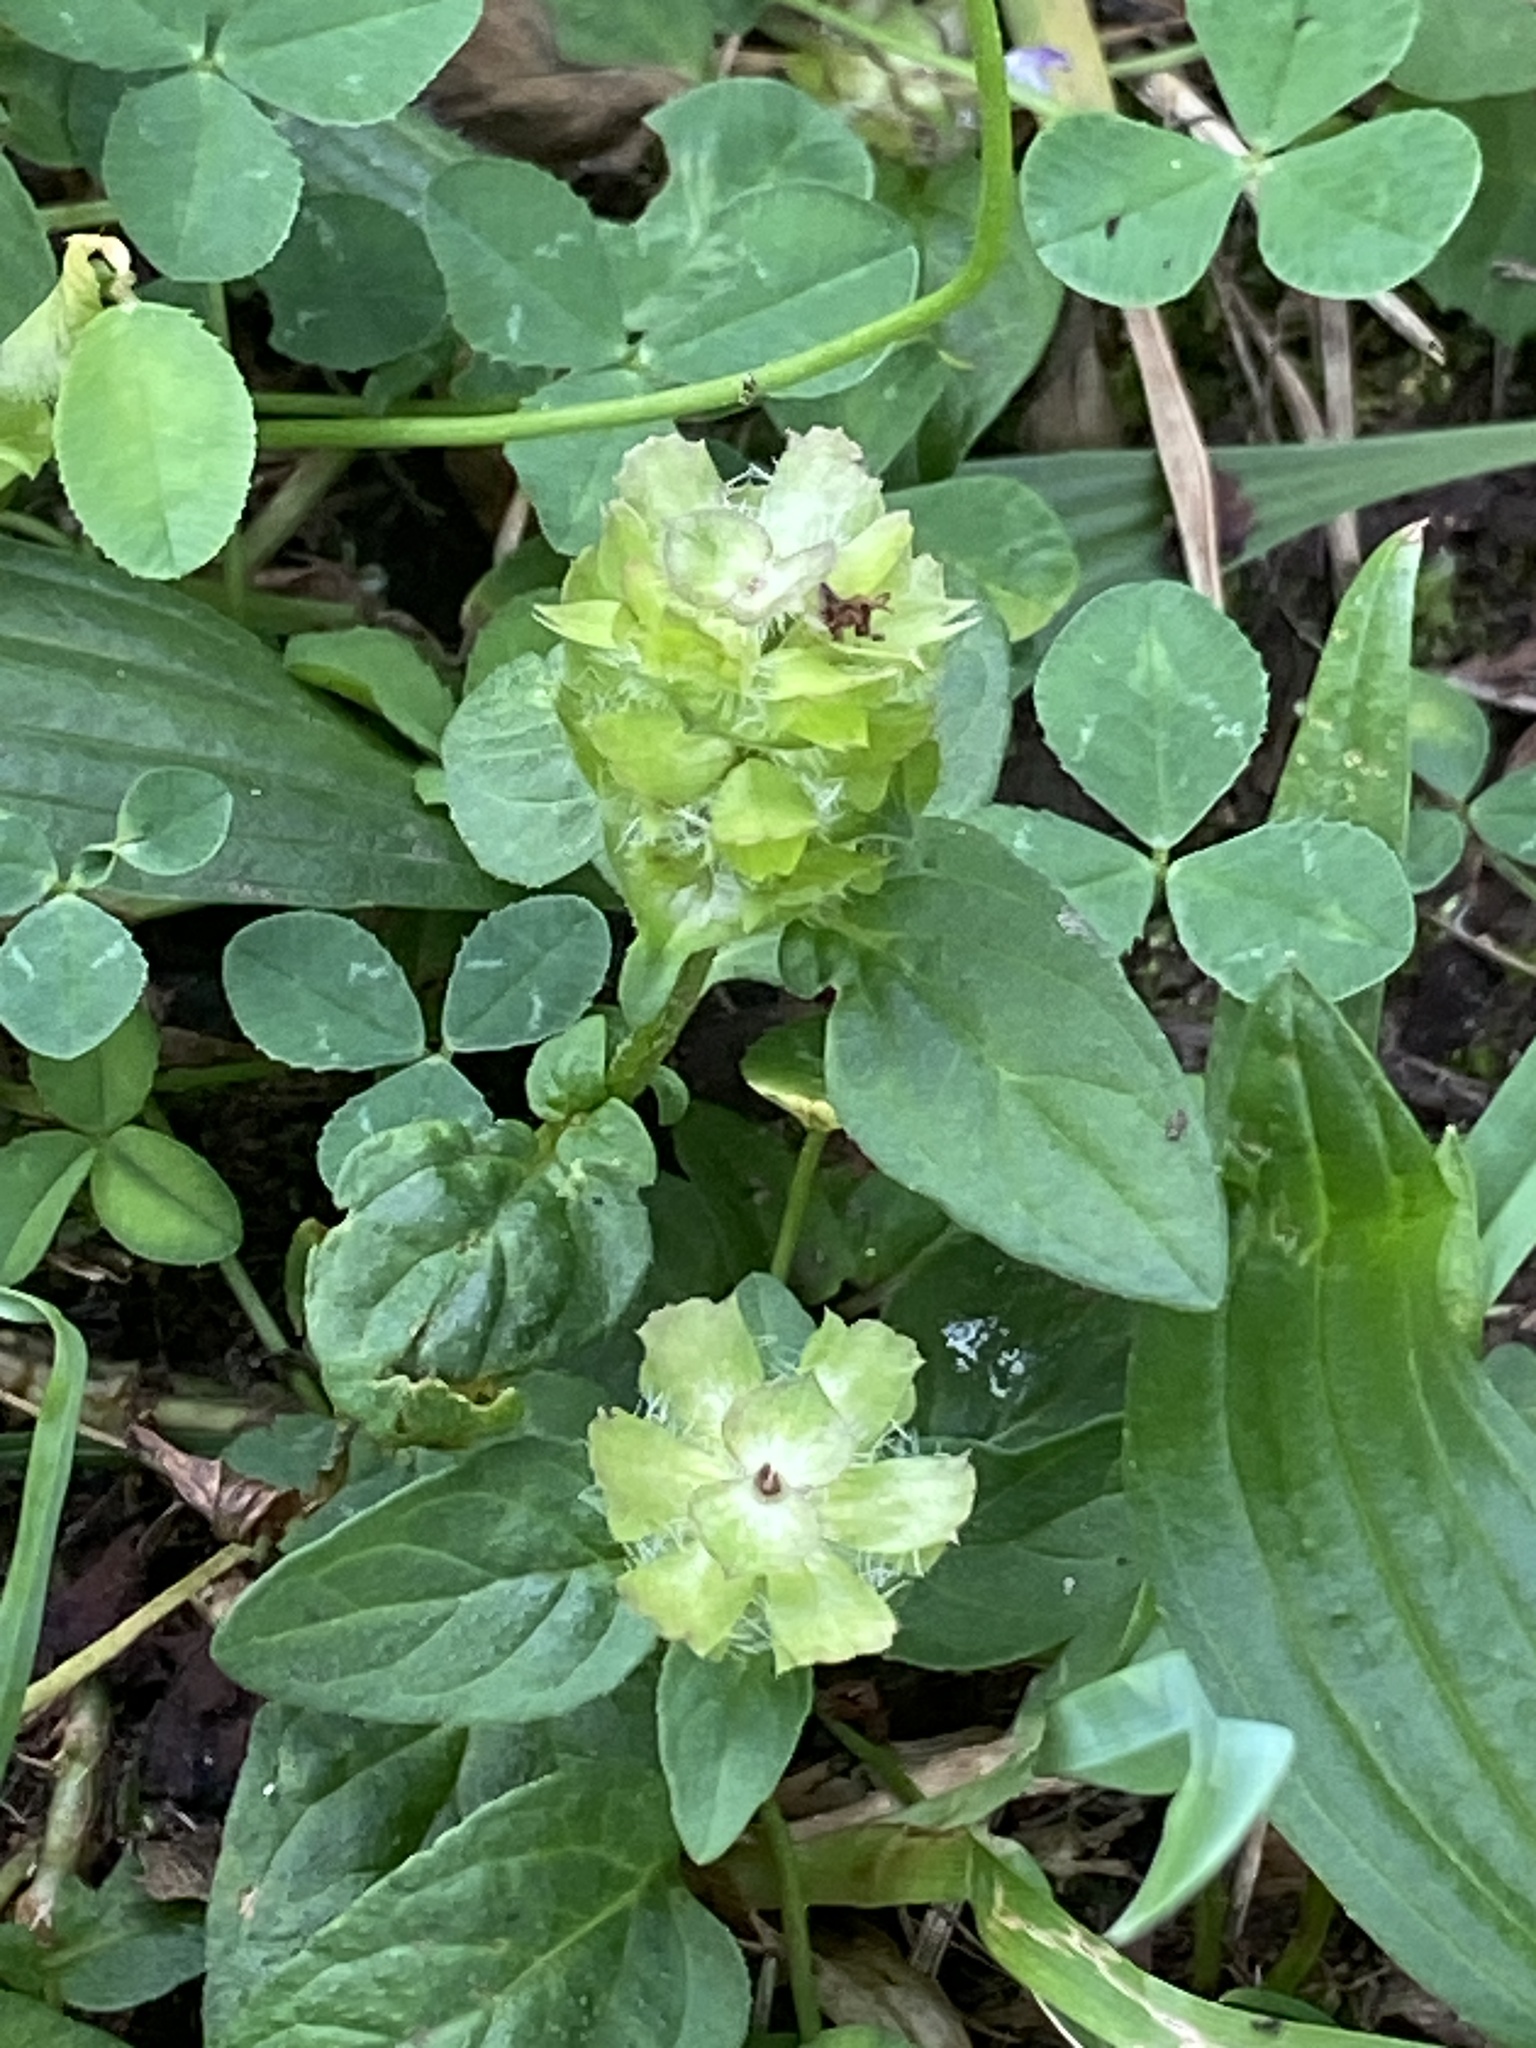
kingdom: Plantae
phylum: Tracheophyta
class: Magnoliopsida
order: Lamiales
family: Lamiaceae
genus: Prunella
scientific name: Prunella vulgaris
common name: Heal-all
